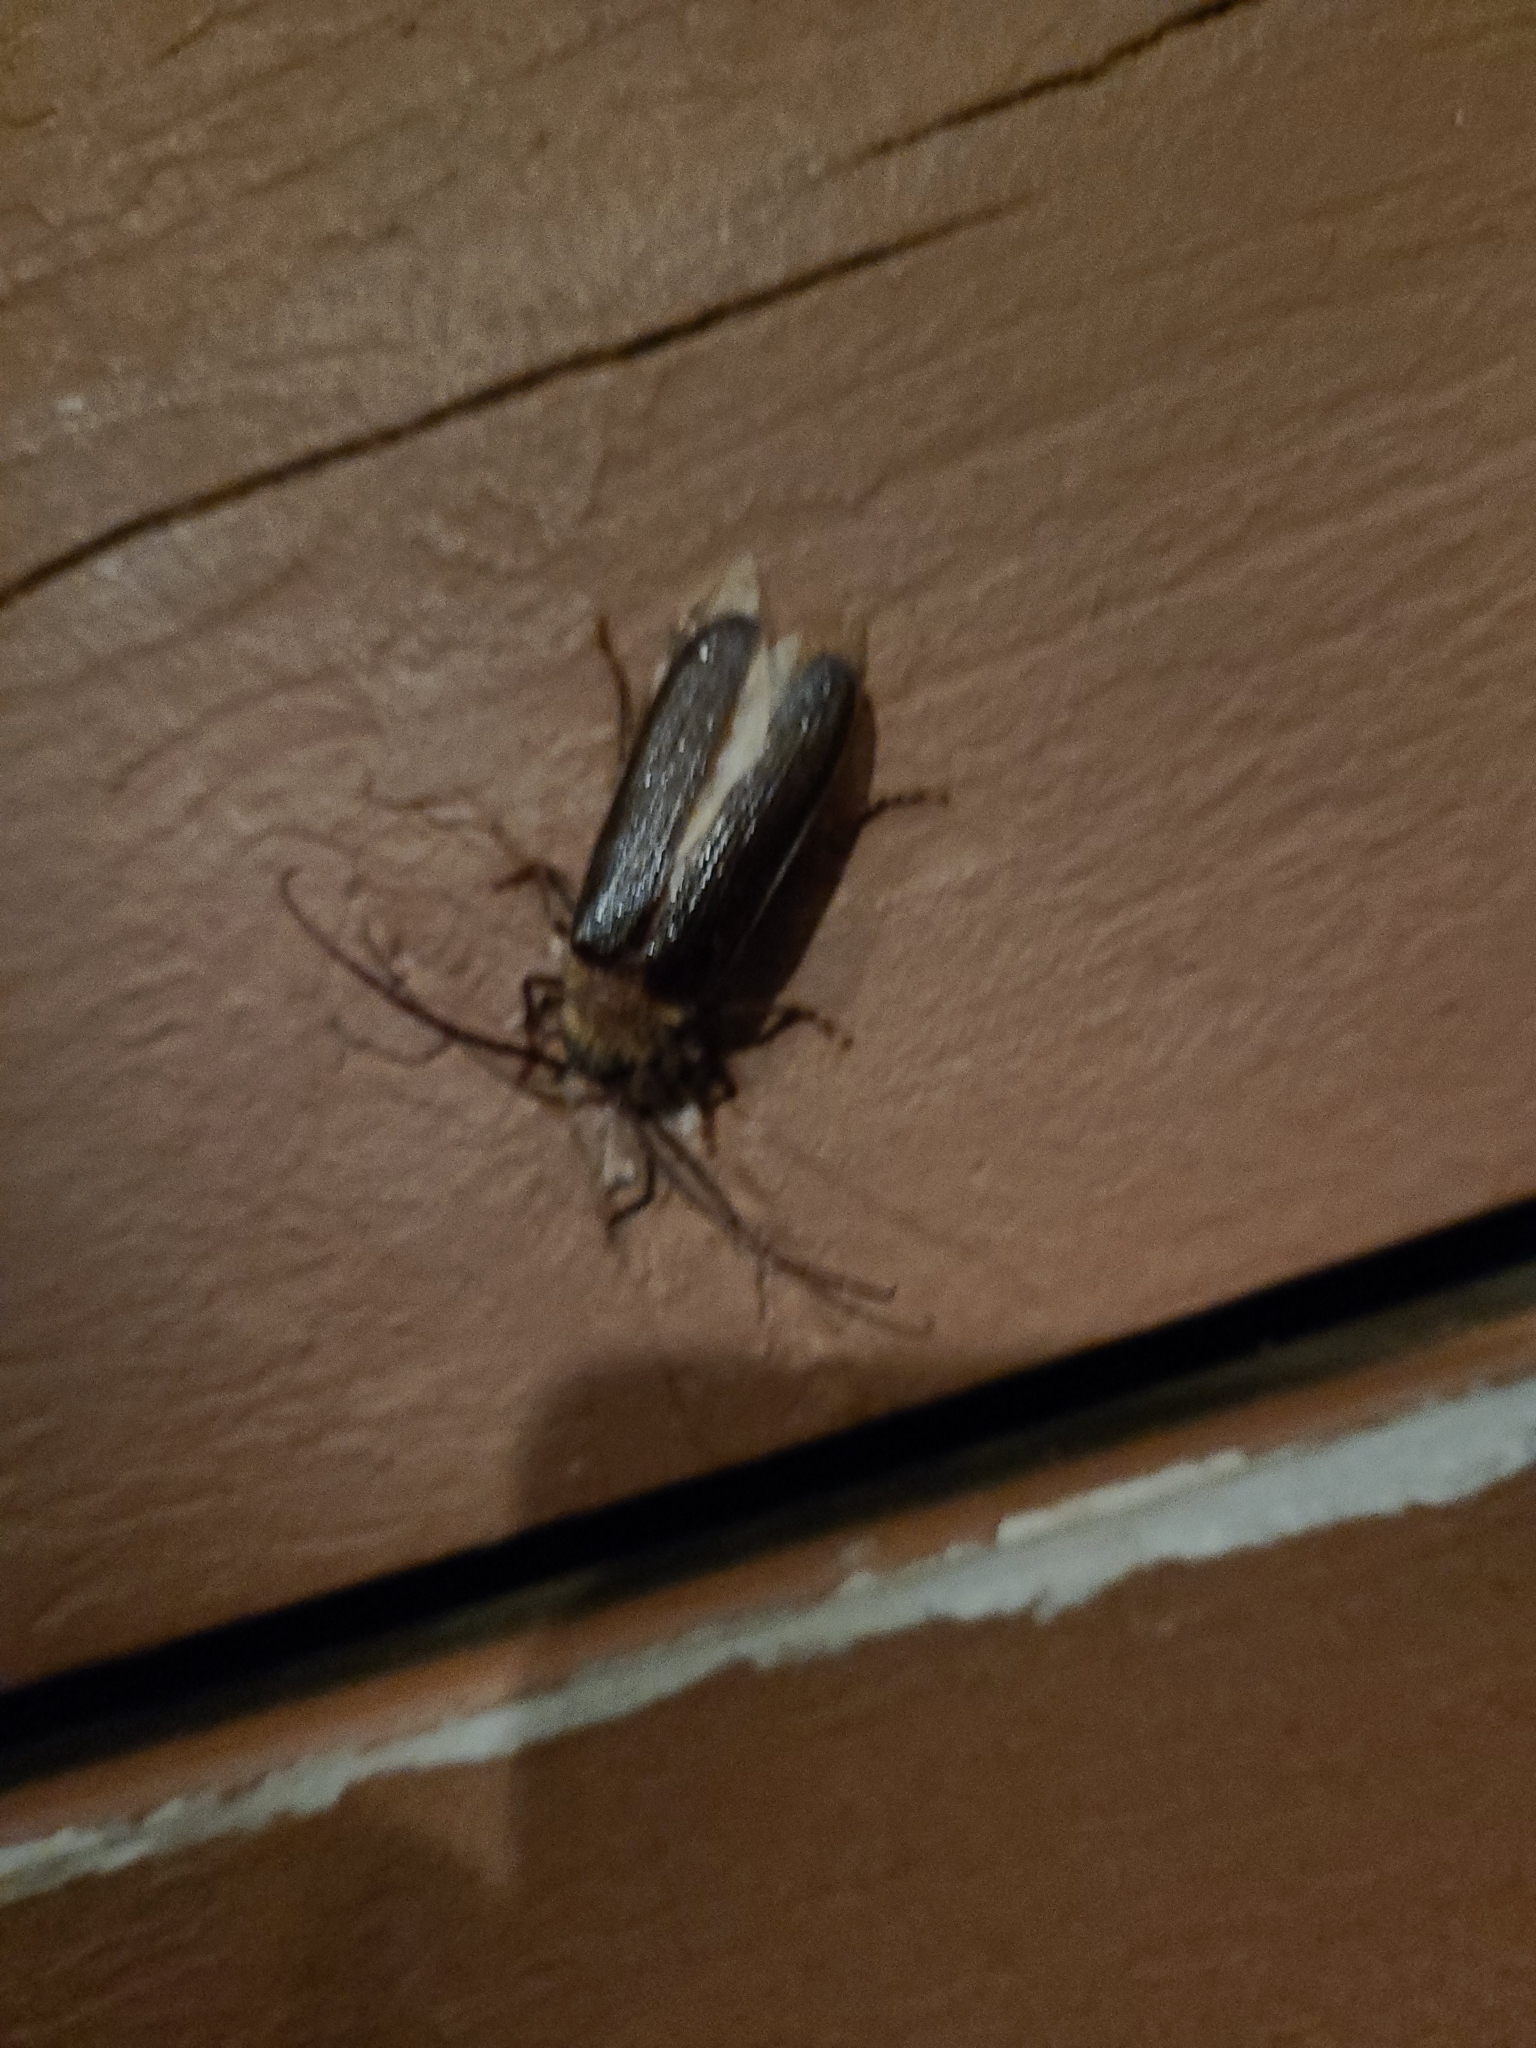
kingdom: Animalia
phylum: Arthropoda
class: Insecta
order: Coleoptera
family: Cerambycidae
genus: Tragosoma
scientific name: Tragosoma harrisii
